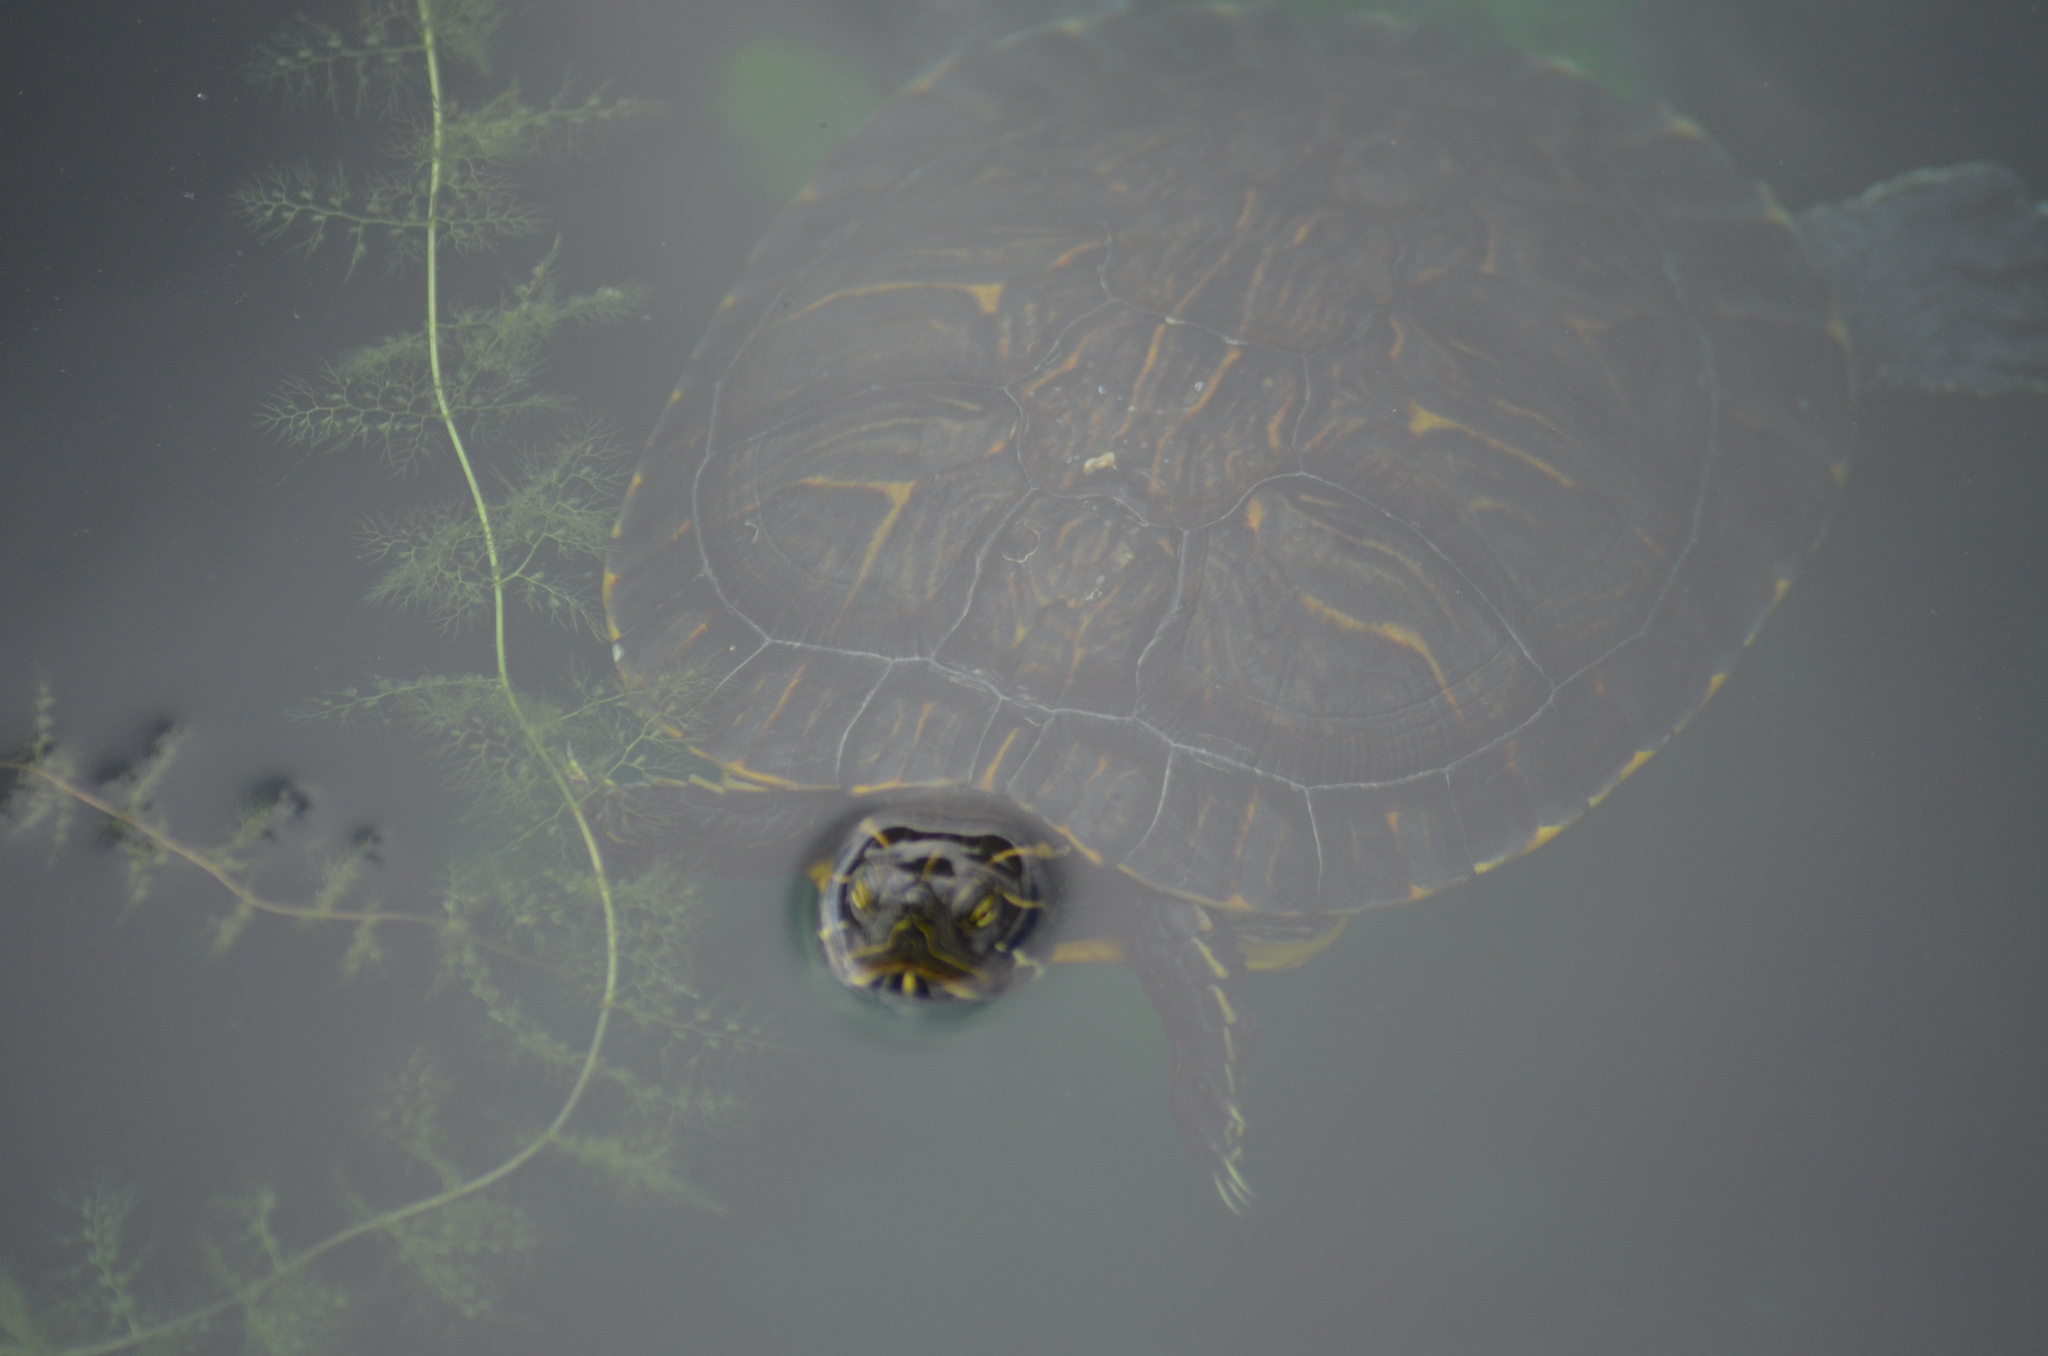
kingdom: Animalia
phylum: Chordata
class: Testudines
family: Emydidae
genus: Trachemys
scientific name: Trachemys scripta
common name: Slider
